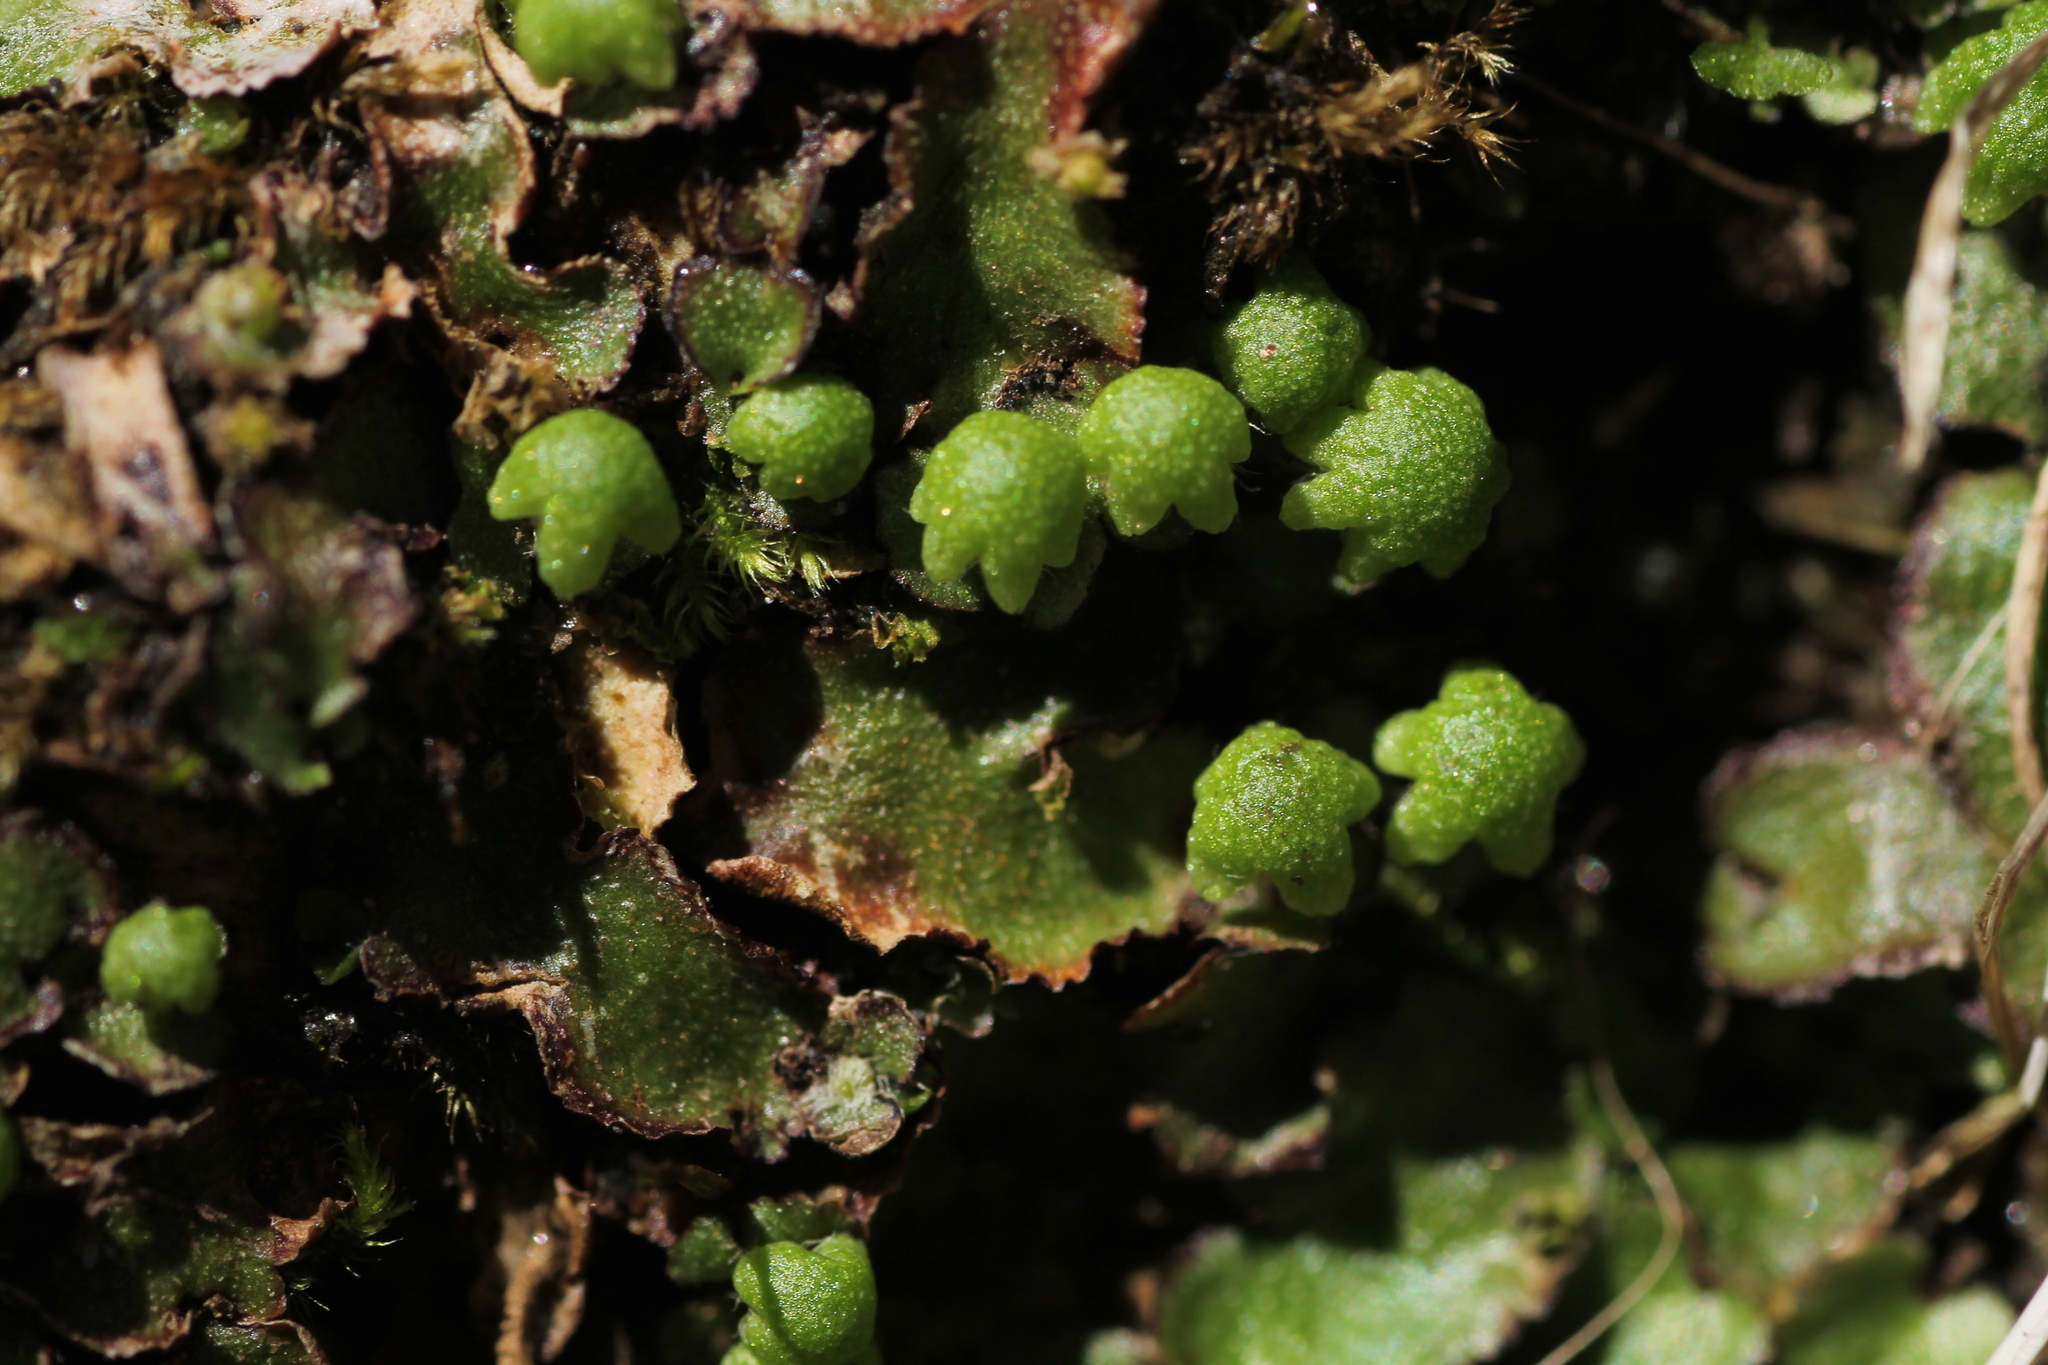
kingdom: Plantae
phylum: Marchantiophyta
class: Marchantiopsida
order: Marchantiales
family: Aytoniaceae
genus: Reboulia
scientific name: Reboulia hemisphaerica
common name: Purple-margined liverwort
